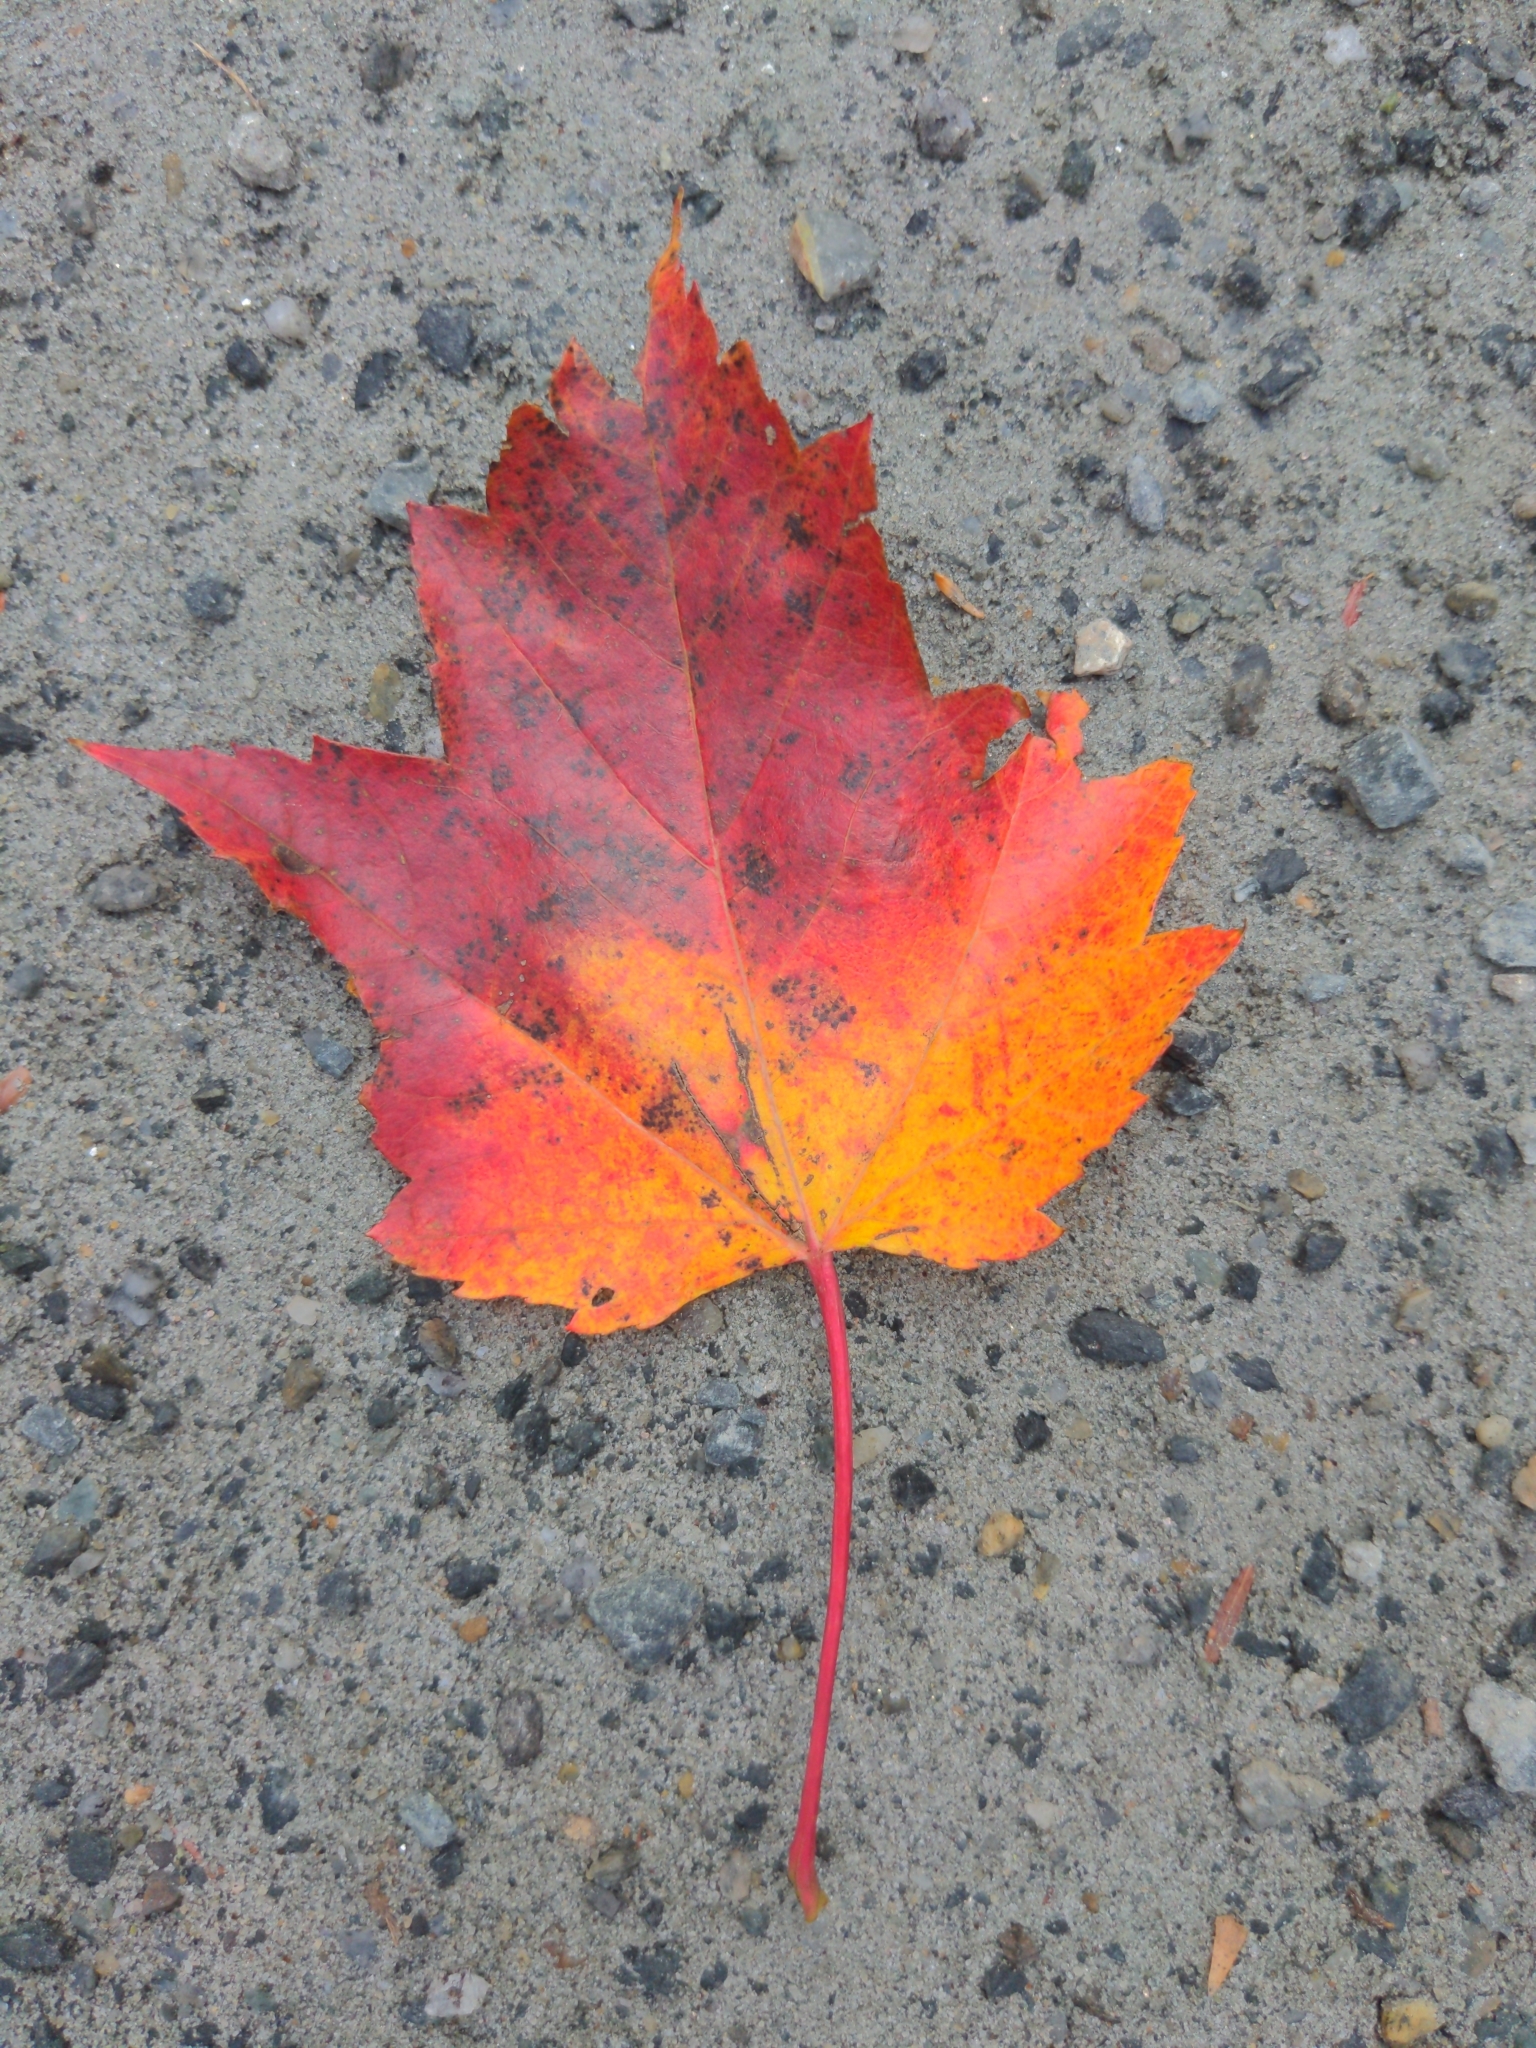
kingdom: Plantae
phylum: Tracheophyta
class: Magnoliopsida
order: Sapindales
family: Sapindaceae
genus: Acer
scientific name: Acer rubrum
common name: Red maple
